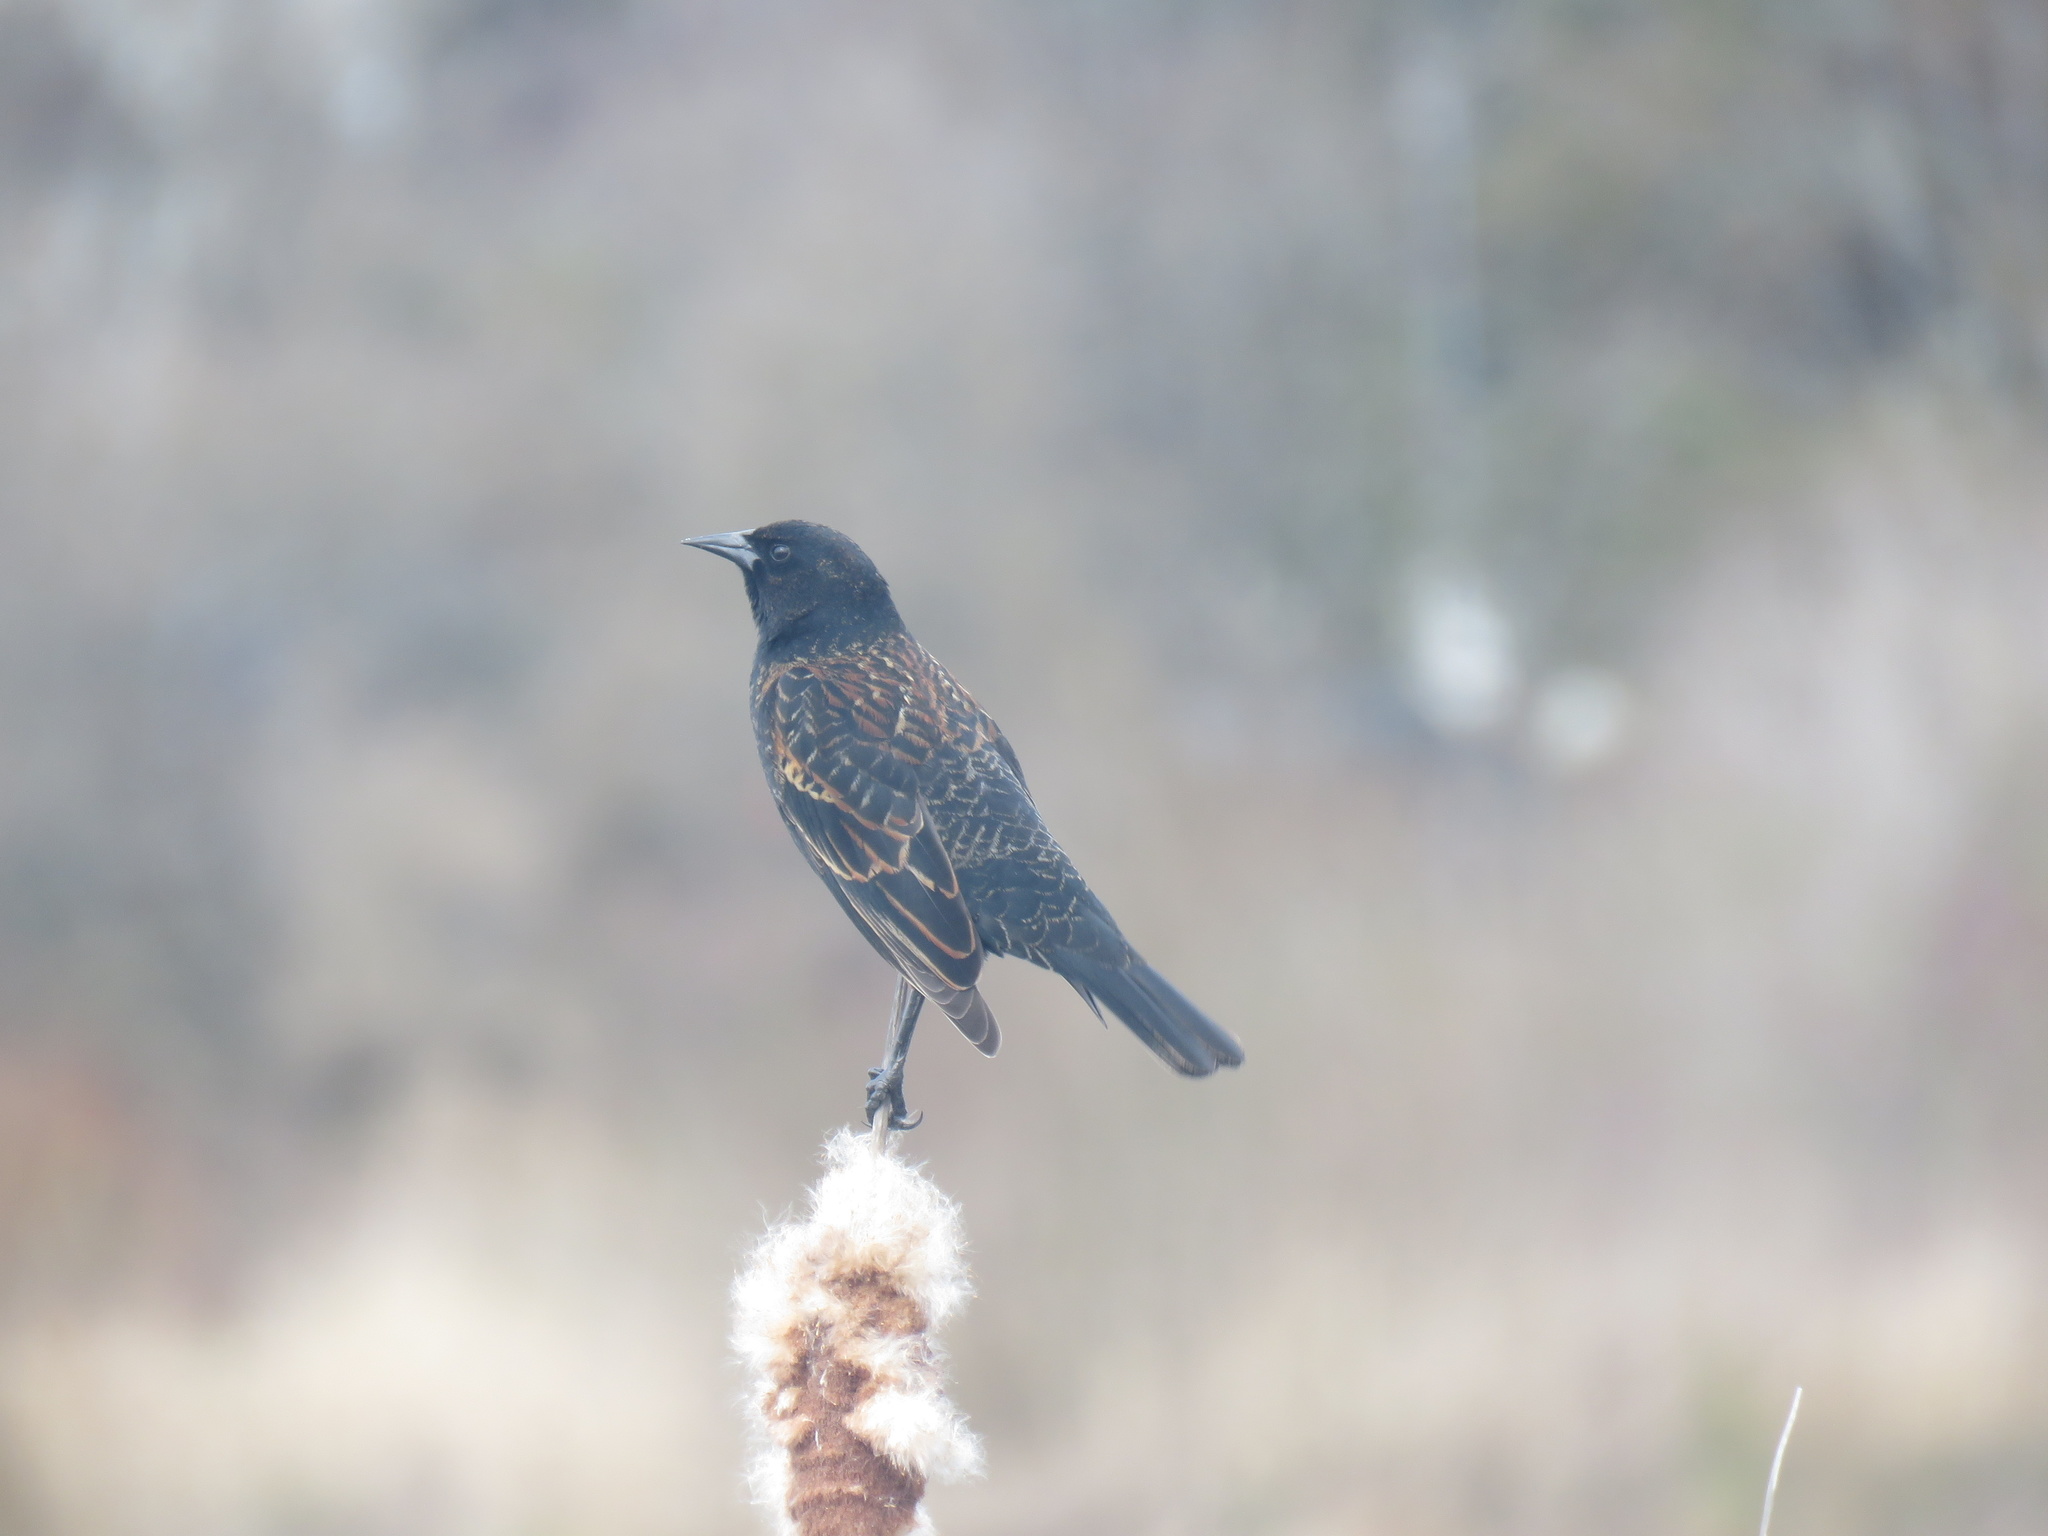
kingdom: Animalia
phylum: Chordata
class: Aves
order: Passeriformes
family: Icteridae
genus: Agelaius
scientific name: Agelaius phoeniceus
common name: Red-winged blackbird
